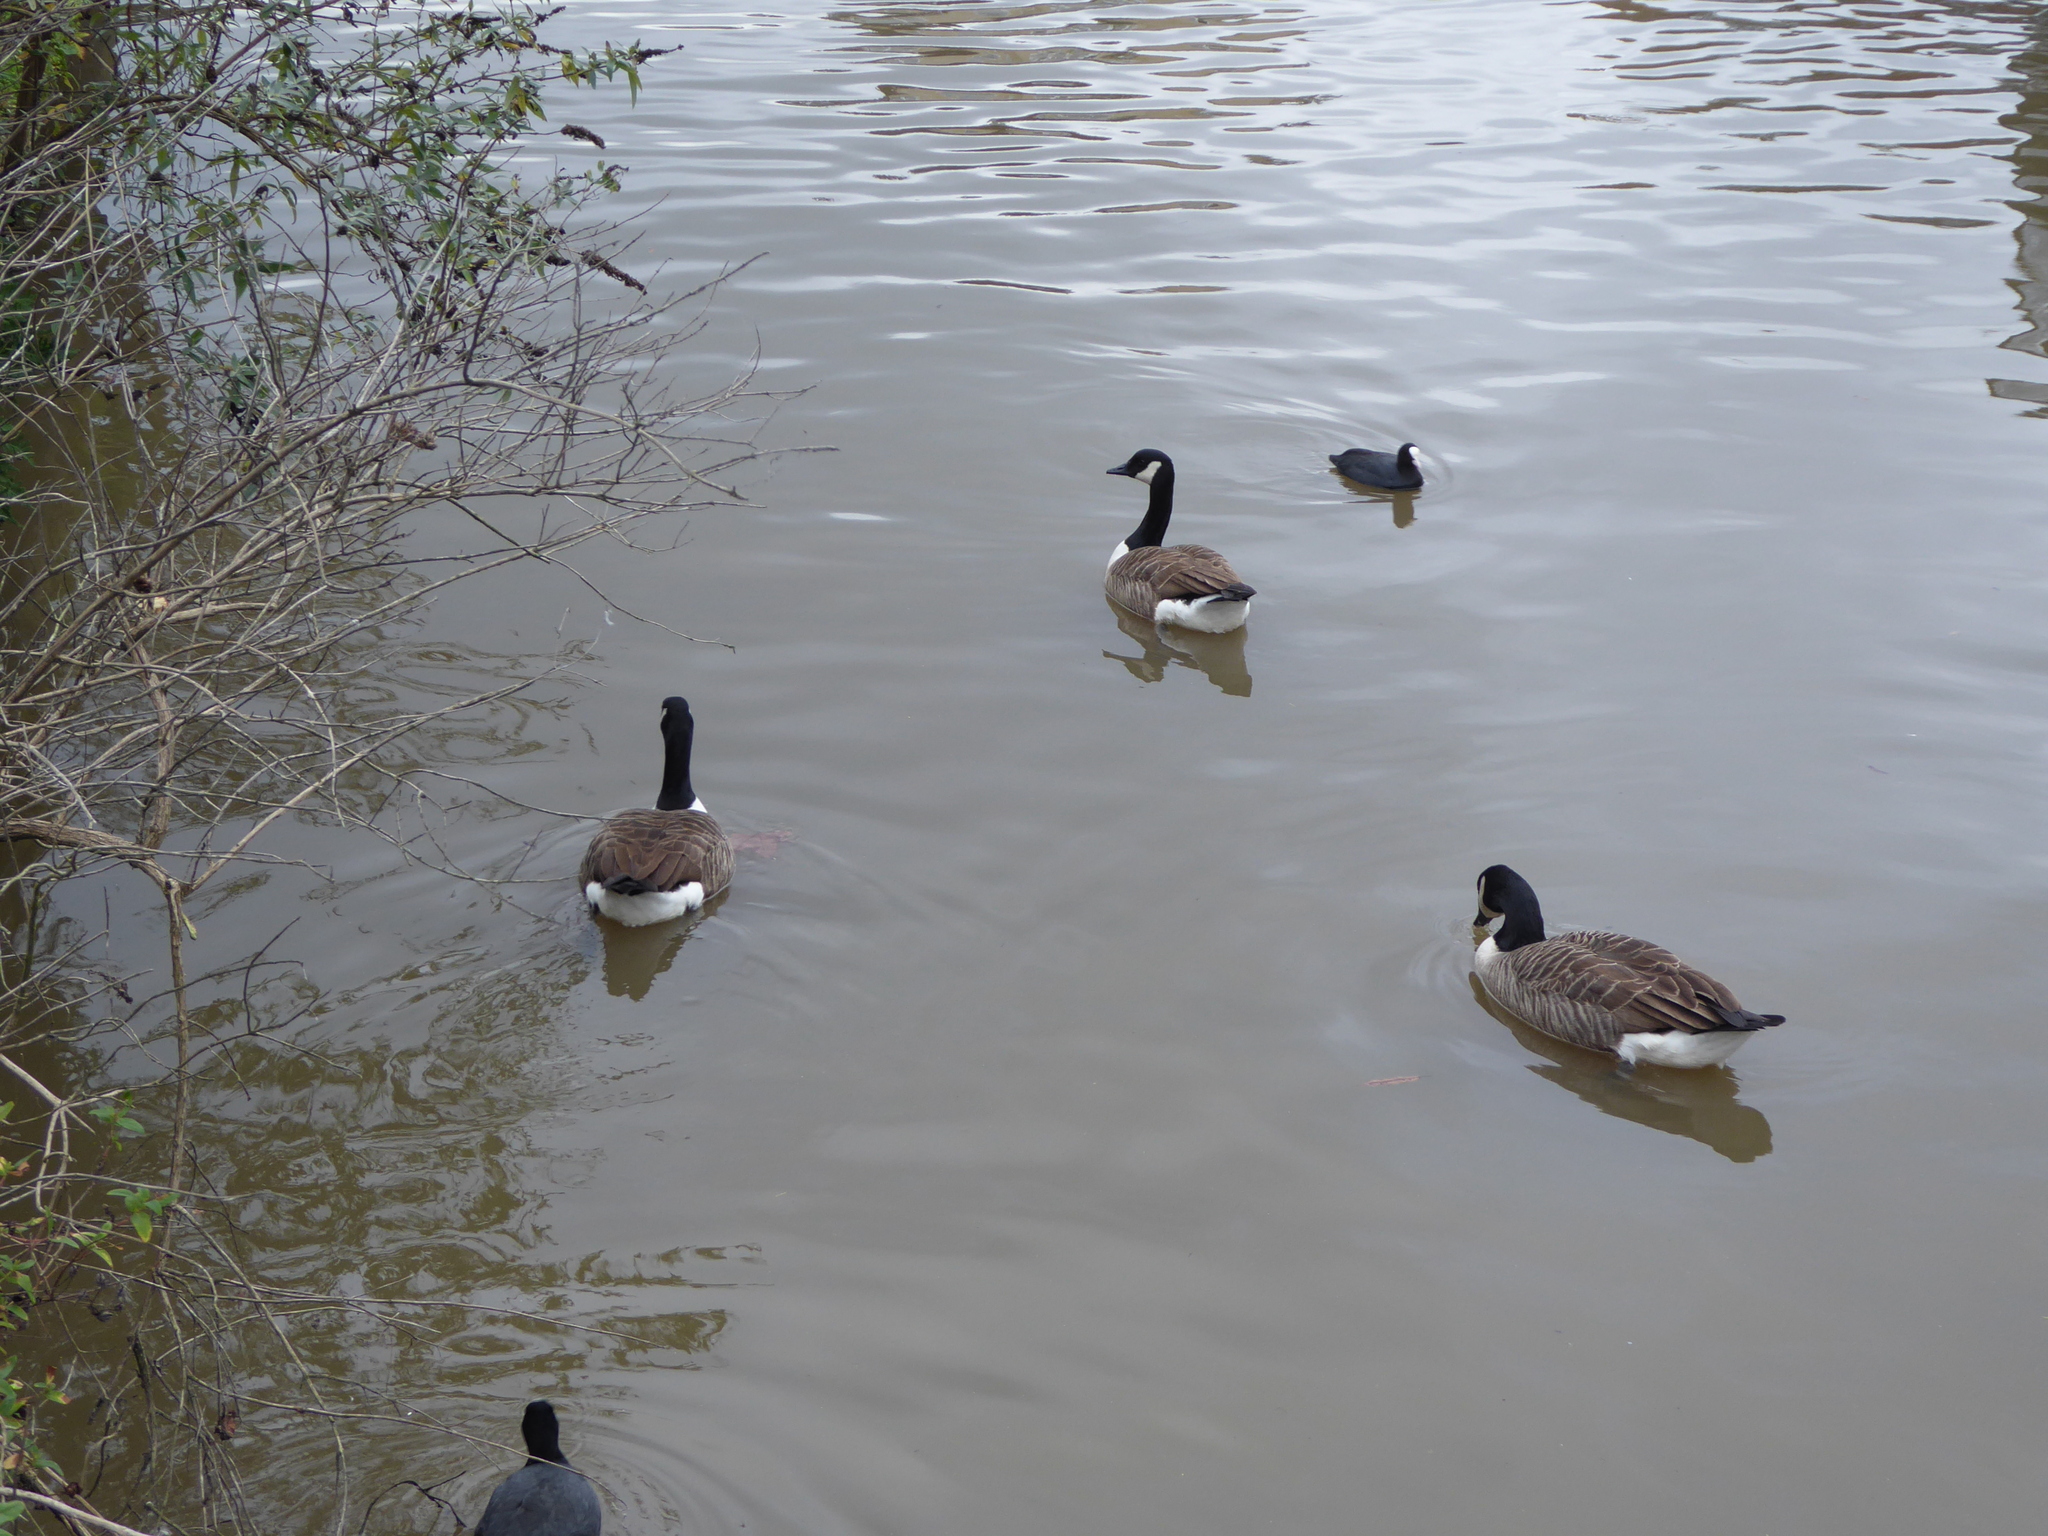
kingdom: Animalia
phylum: Chordata
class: Aves
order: Anseriformes
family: Anatidae
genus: Branta
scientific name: Branta canadensis
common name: Canada goose
